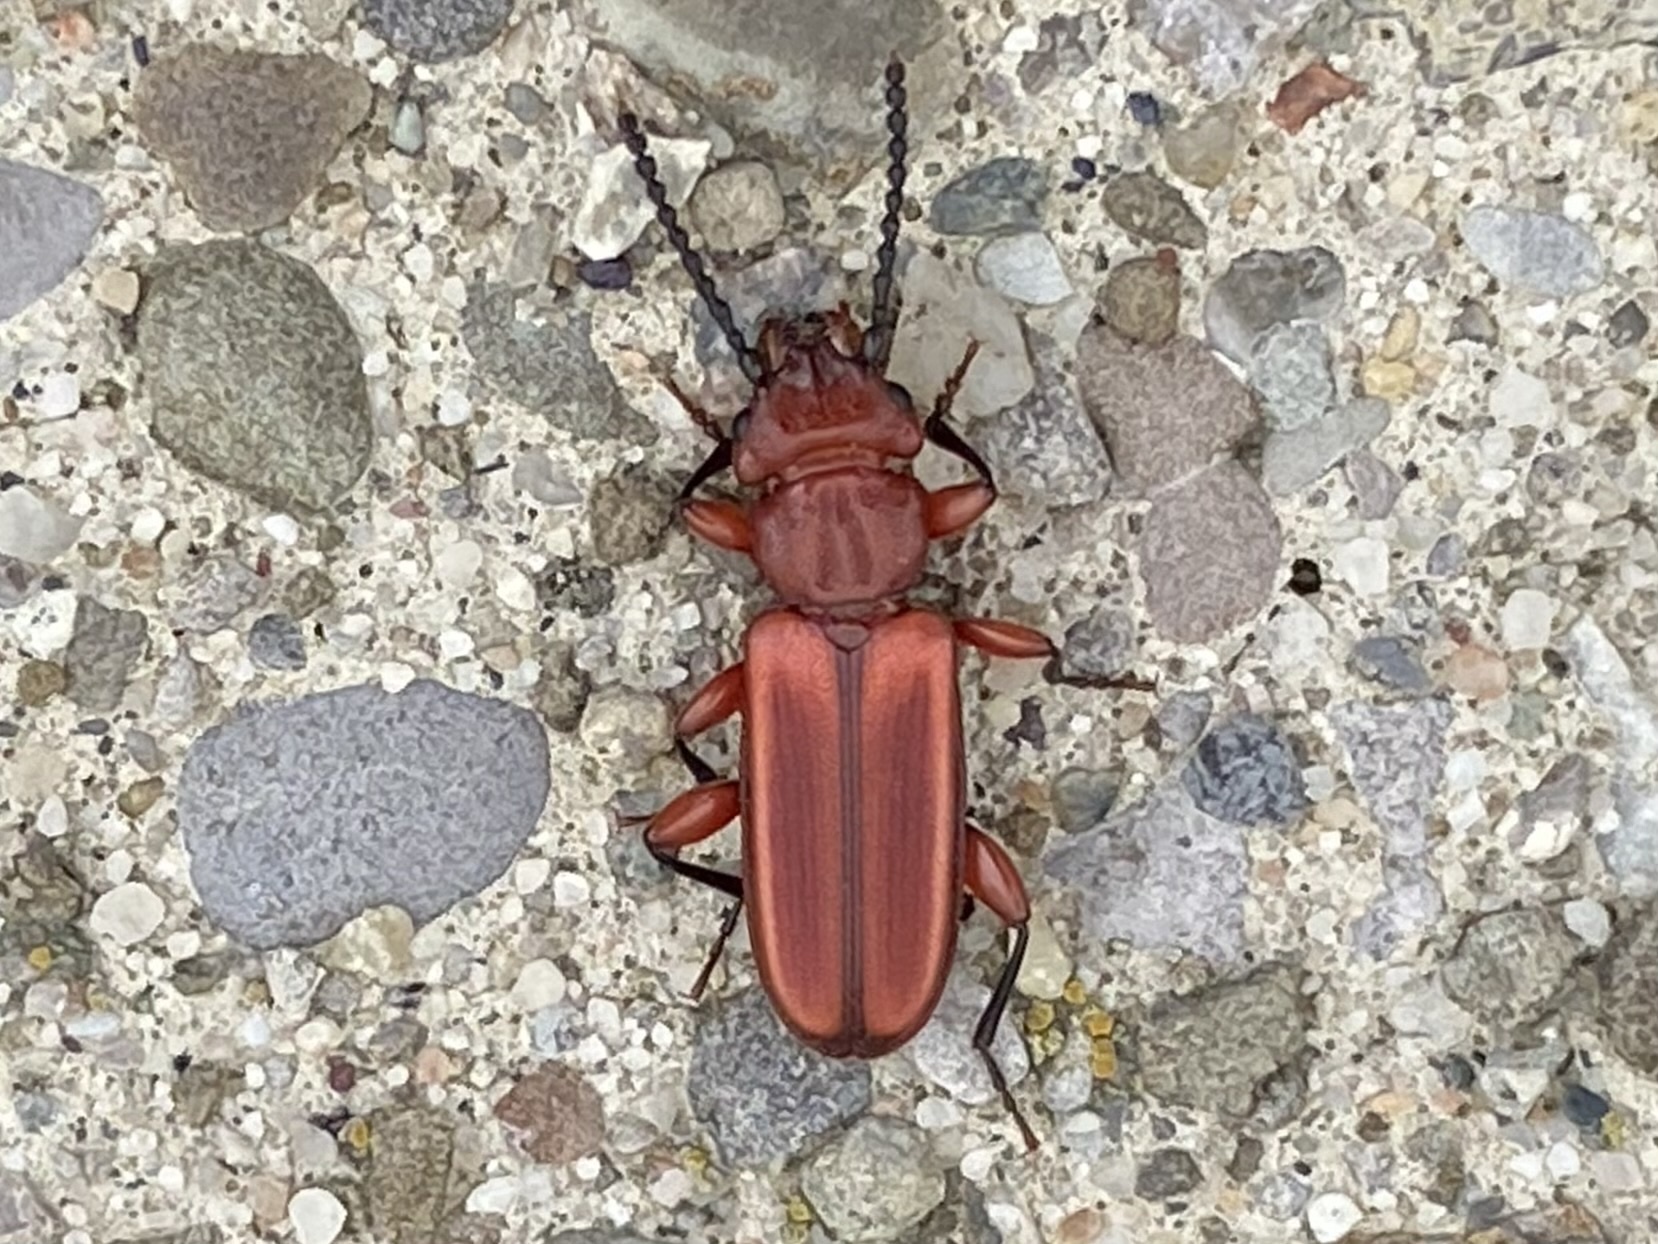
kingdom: Animalia
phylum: Arthropoda
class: Insecta
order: Coleoptera
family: Cucujidae
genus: Cucujus
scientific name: Cucujus clavipes
